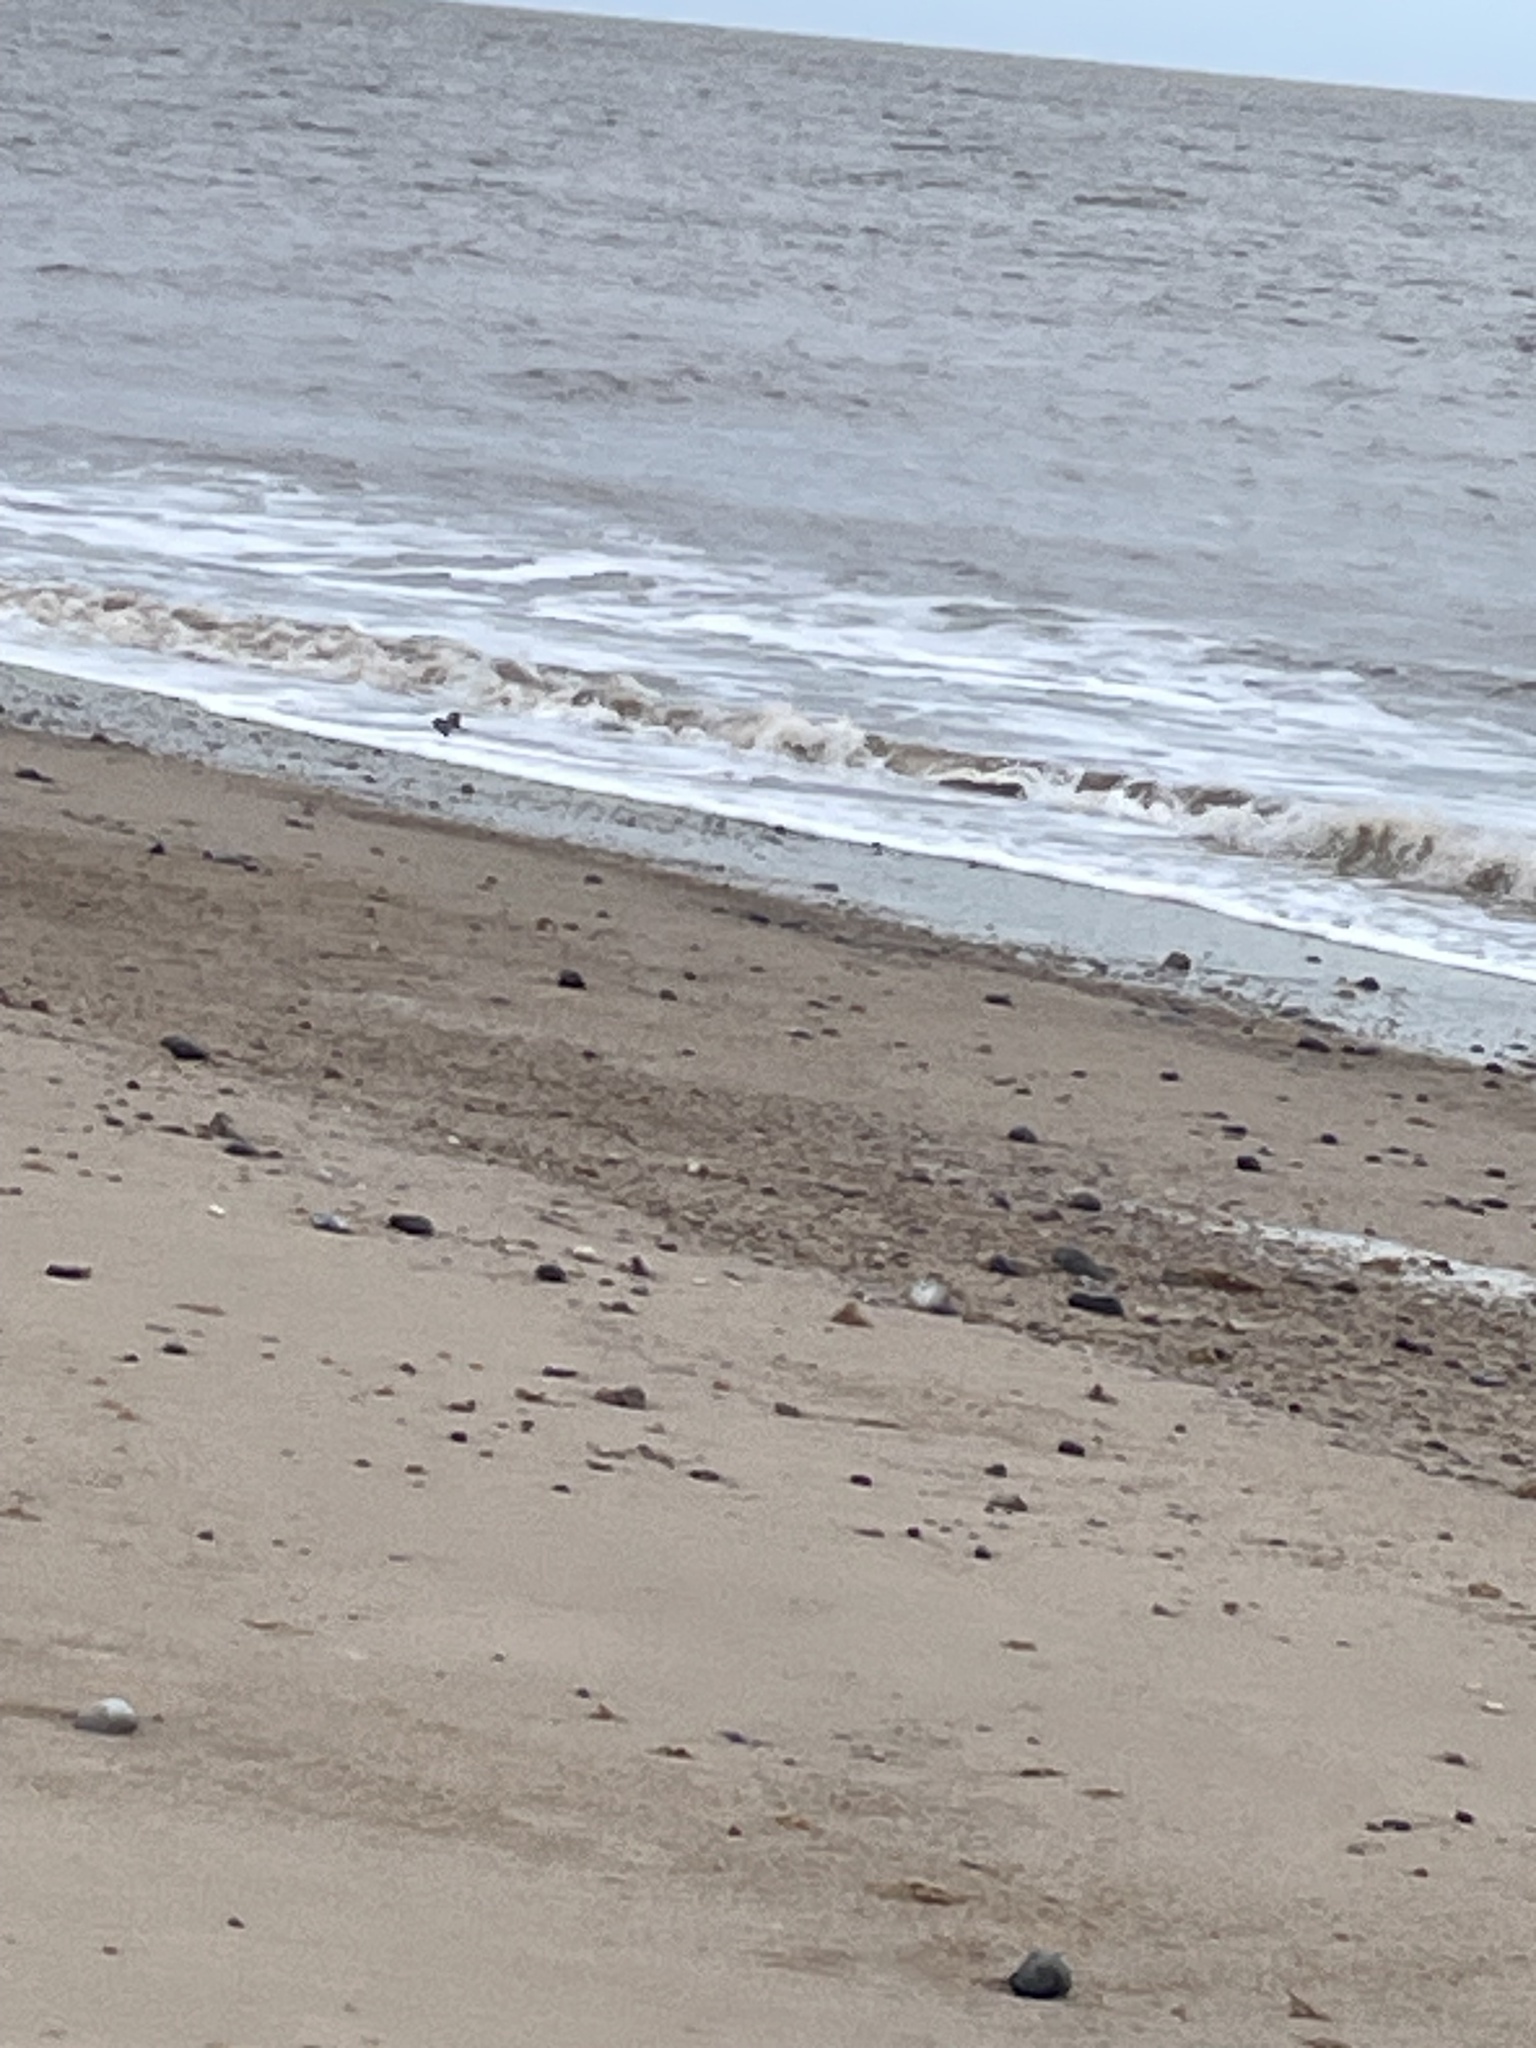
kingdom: Animalia
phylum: Chordata
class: Aves
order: Charadriiformes
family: Scolopacidae
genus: Arenaria
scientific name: Arenaria interpres
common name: Ruddy turnstone
